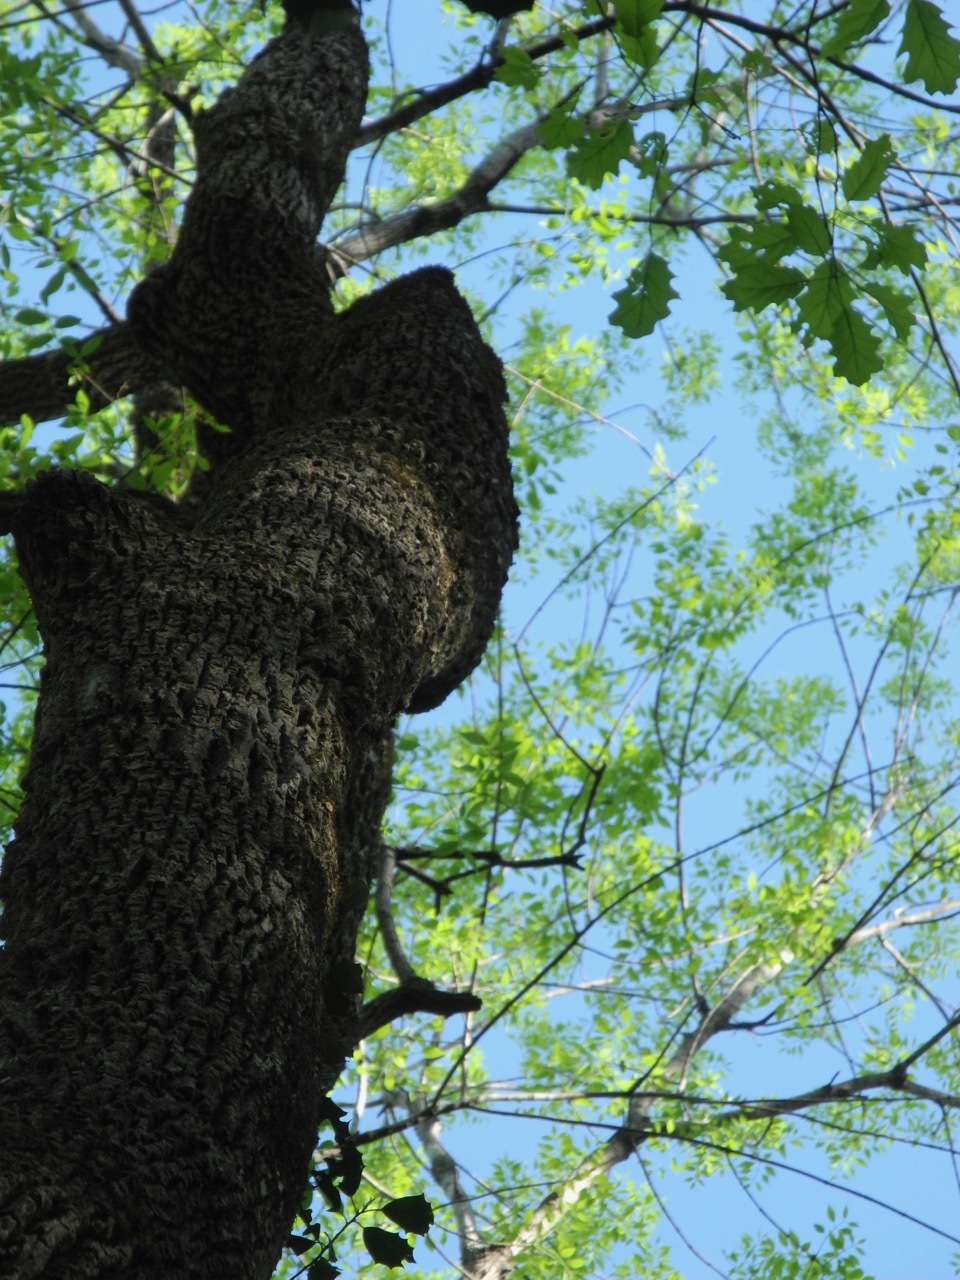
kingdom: Plantae
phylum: Tracheophyta
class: Magnoliopsida
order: Lamiales
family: Oleaceae
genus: Fraxinus
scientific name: Fraxinus pennsylvanica
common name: Green ash
